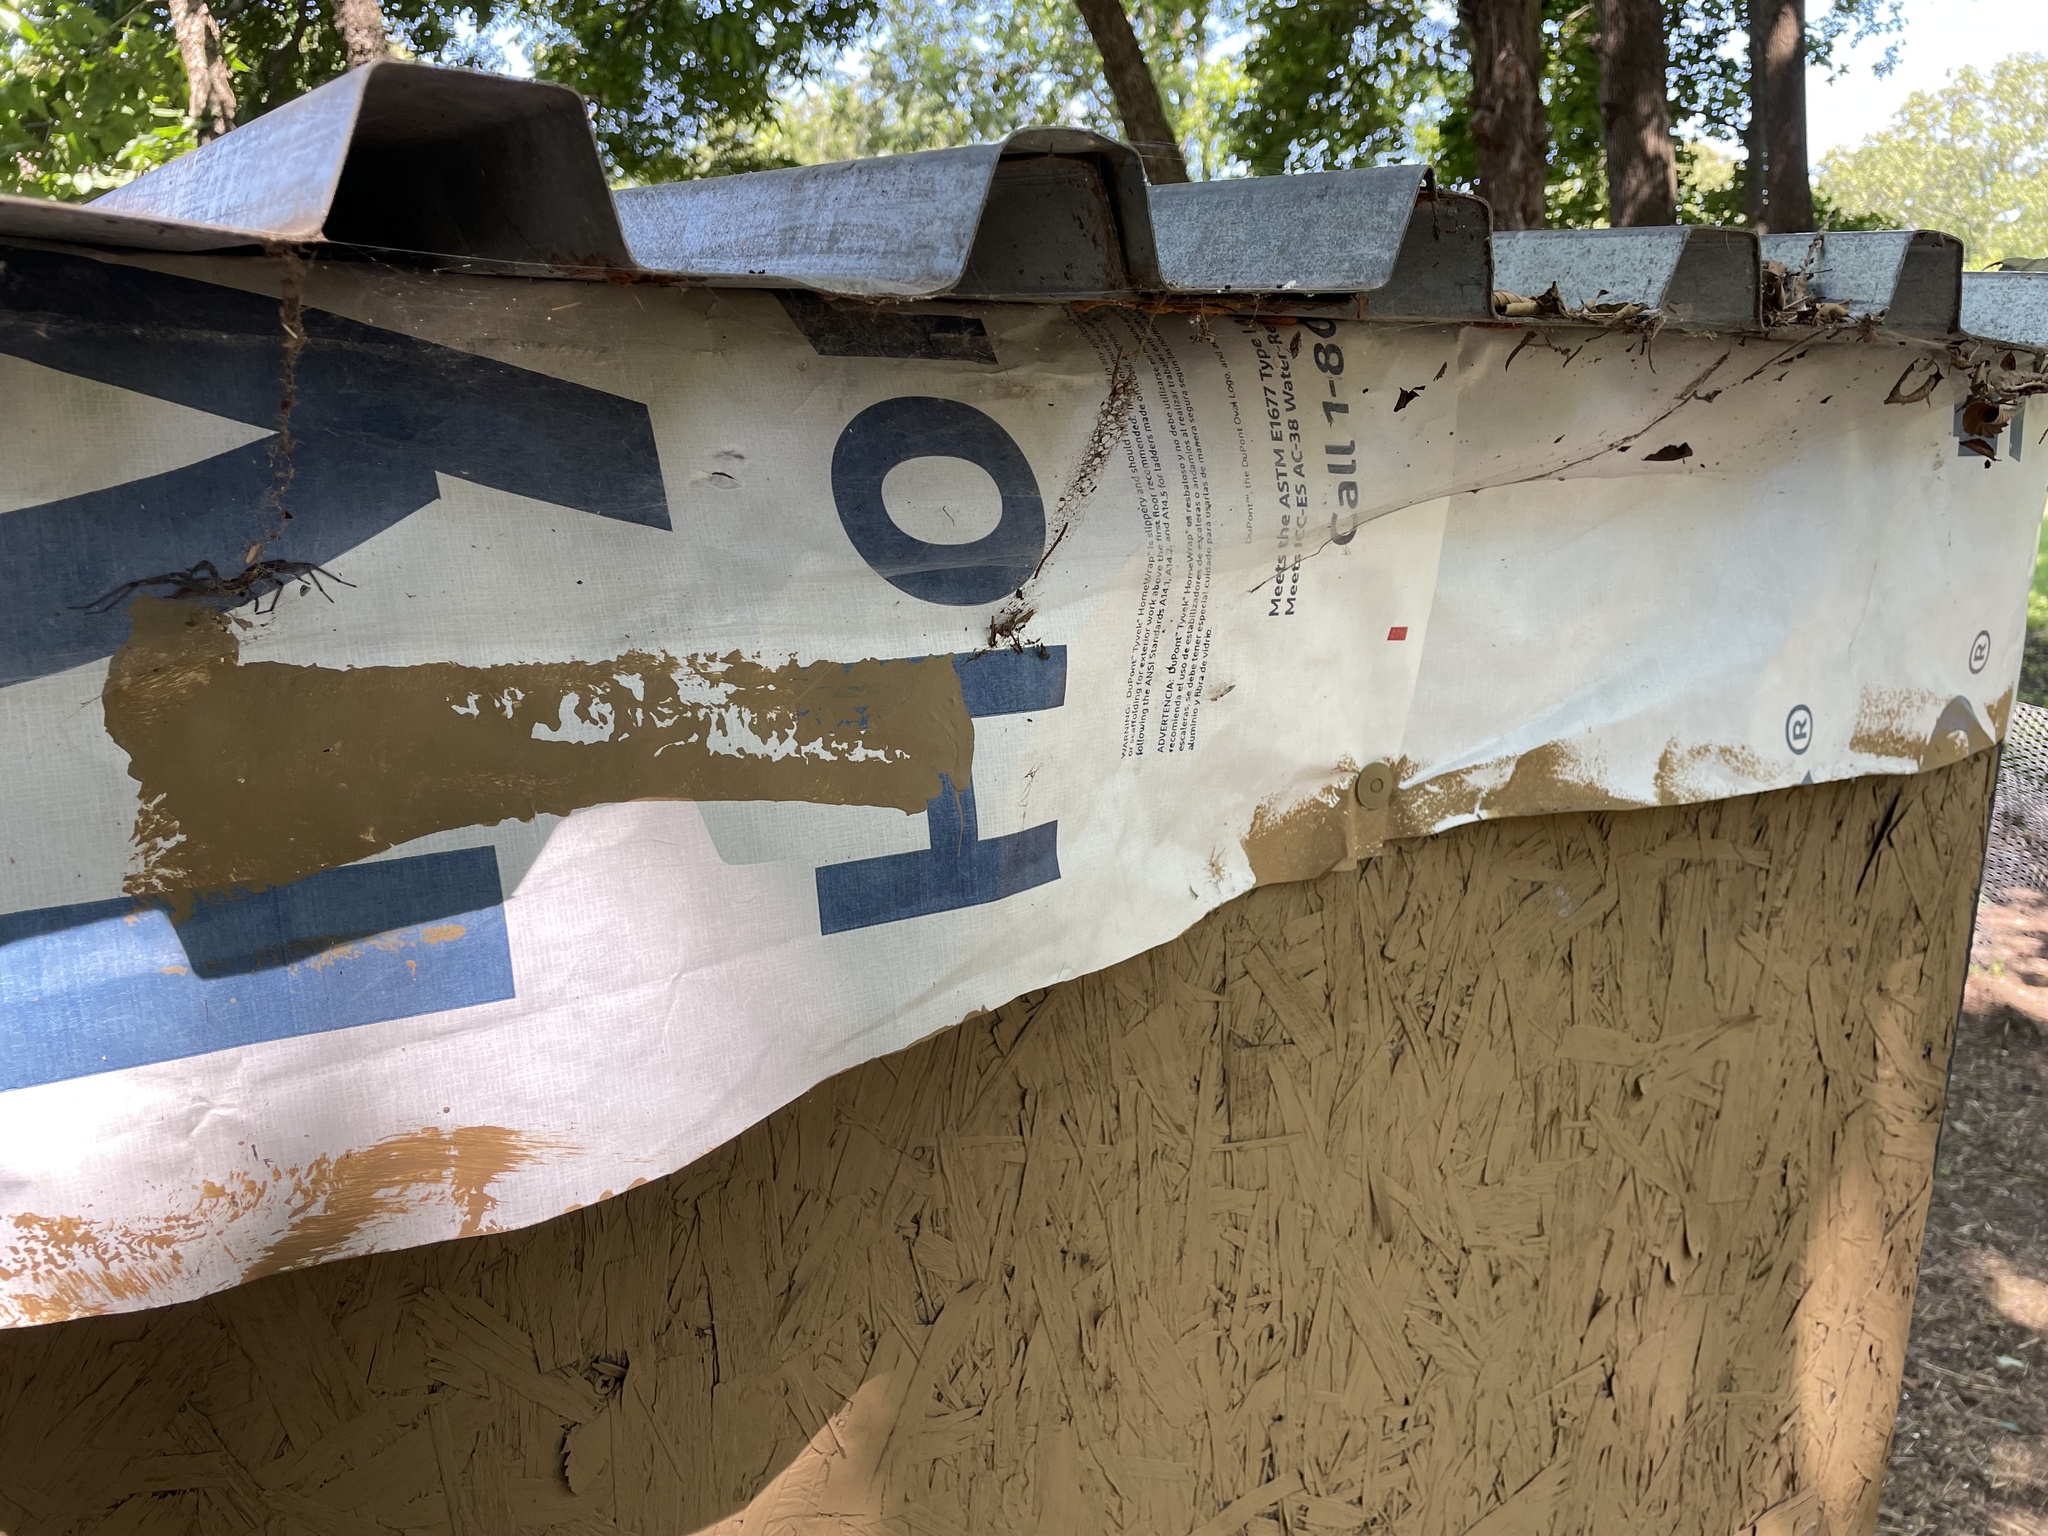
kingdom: Animalia
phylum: Arthropoda
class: Arachnida
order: Araneae
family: Agelenidae
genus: Agelenopsis
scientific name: Agelenopsis
